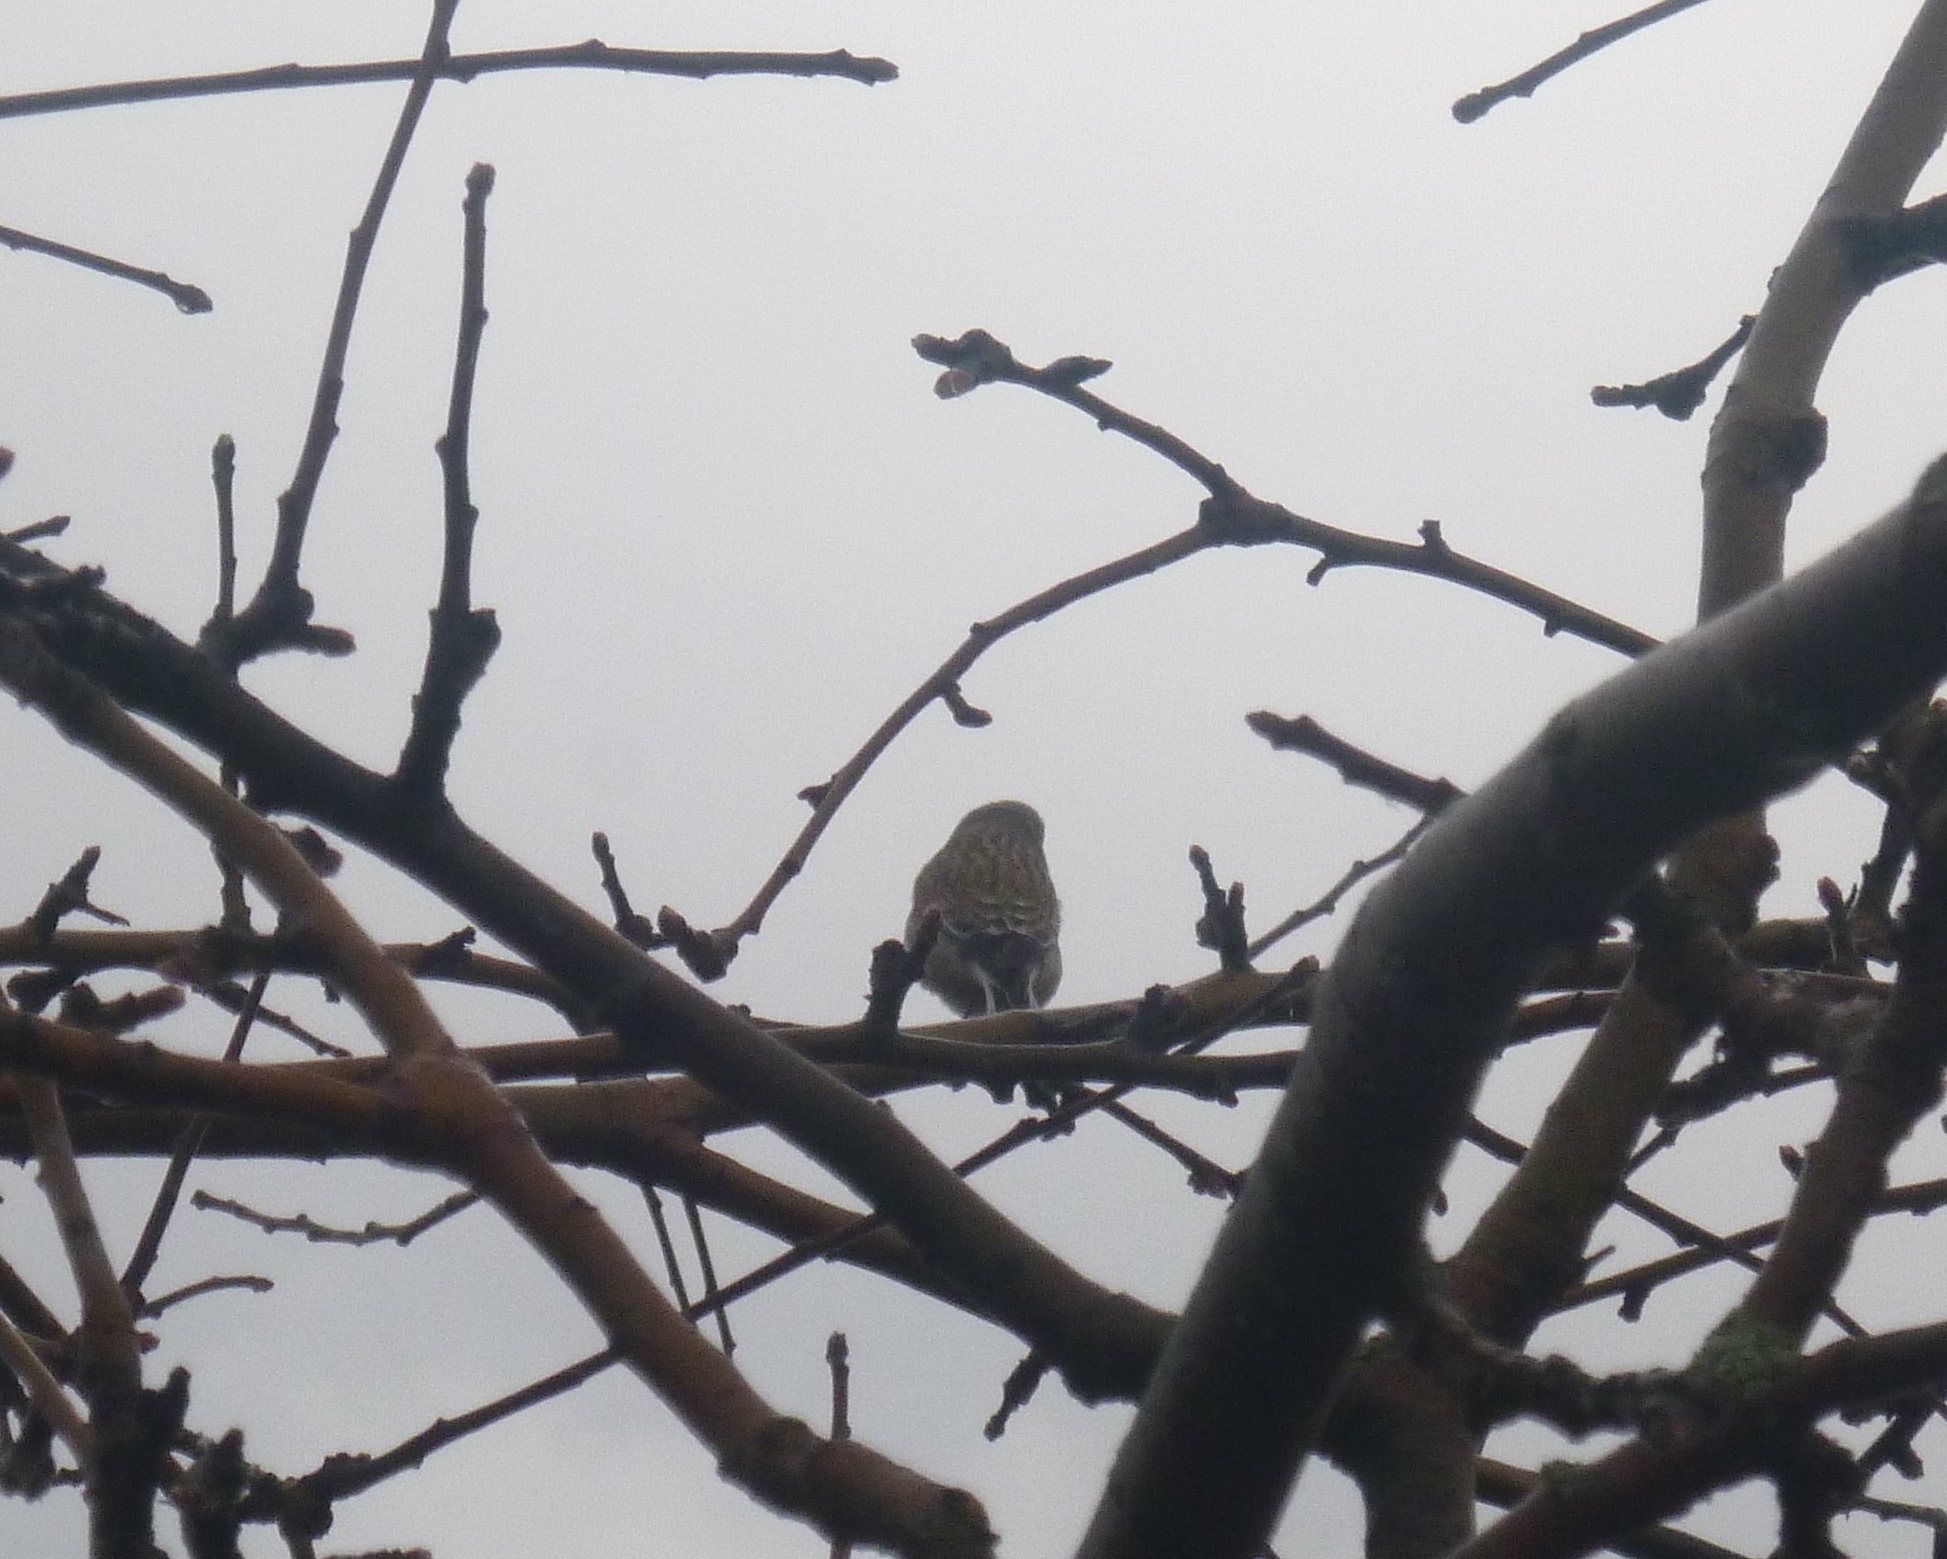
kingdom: Animalia
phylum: Chordata
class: Aves
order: Passeriformes
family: Fringillidae
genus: Linaria
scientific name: Linaria cannabina
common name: Common linnet
